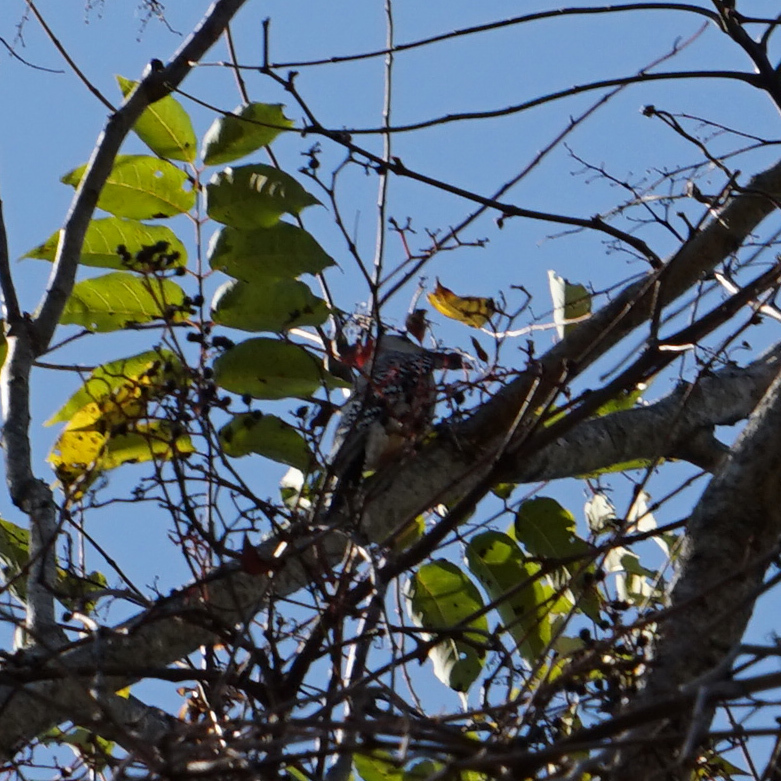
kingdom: Animalia
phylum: Chordata
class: Aves
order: Piciformes
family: Picidae
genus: Melanerpes
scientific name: Melanerpes carolinus
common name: Red-bellied woodpecker
